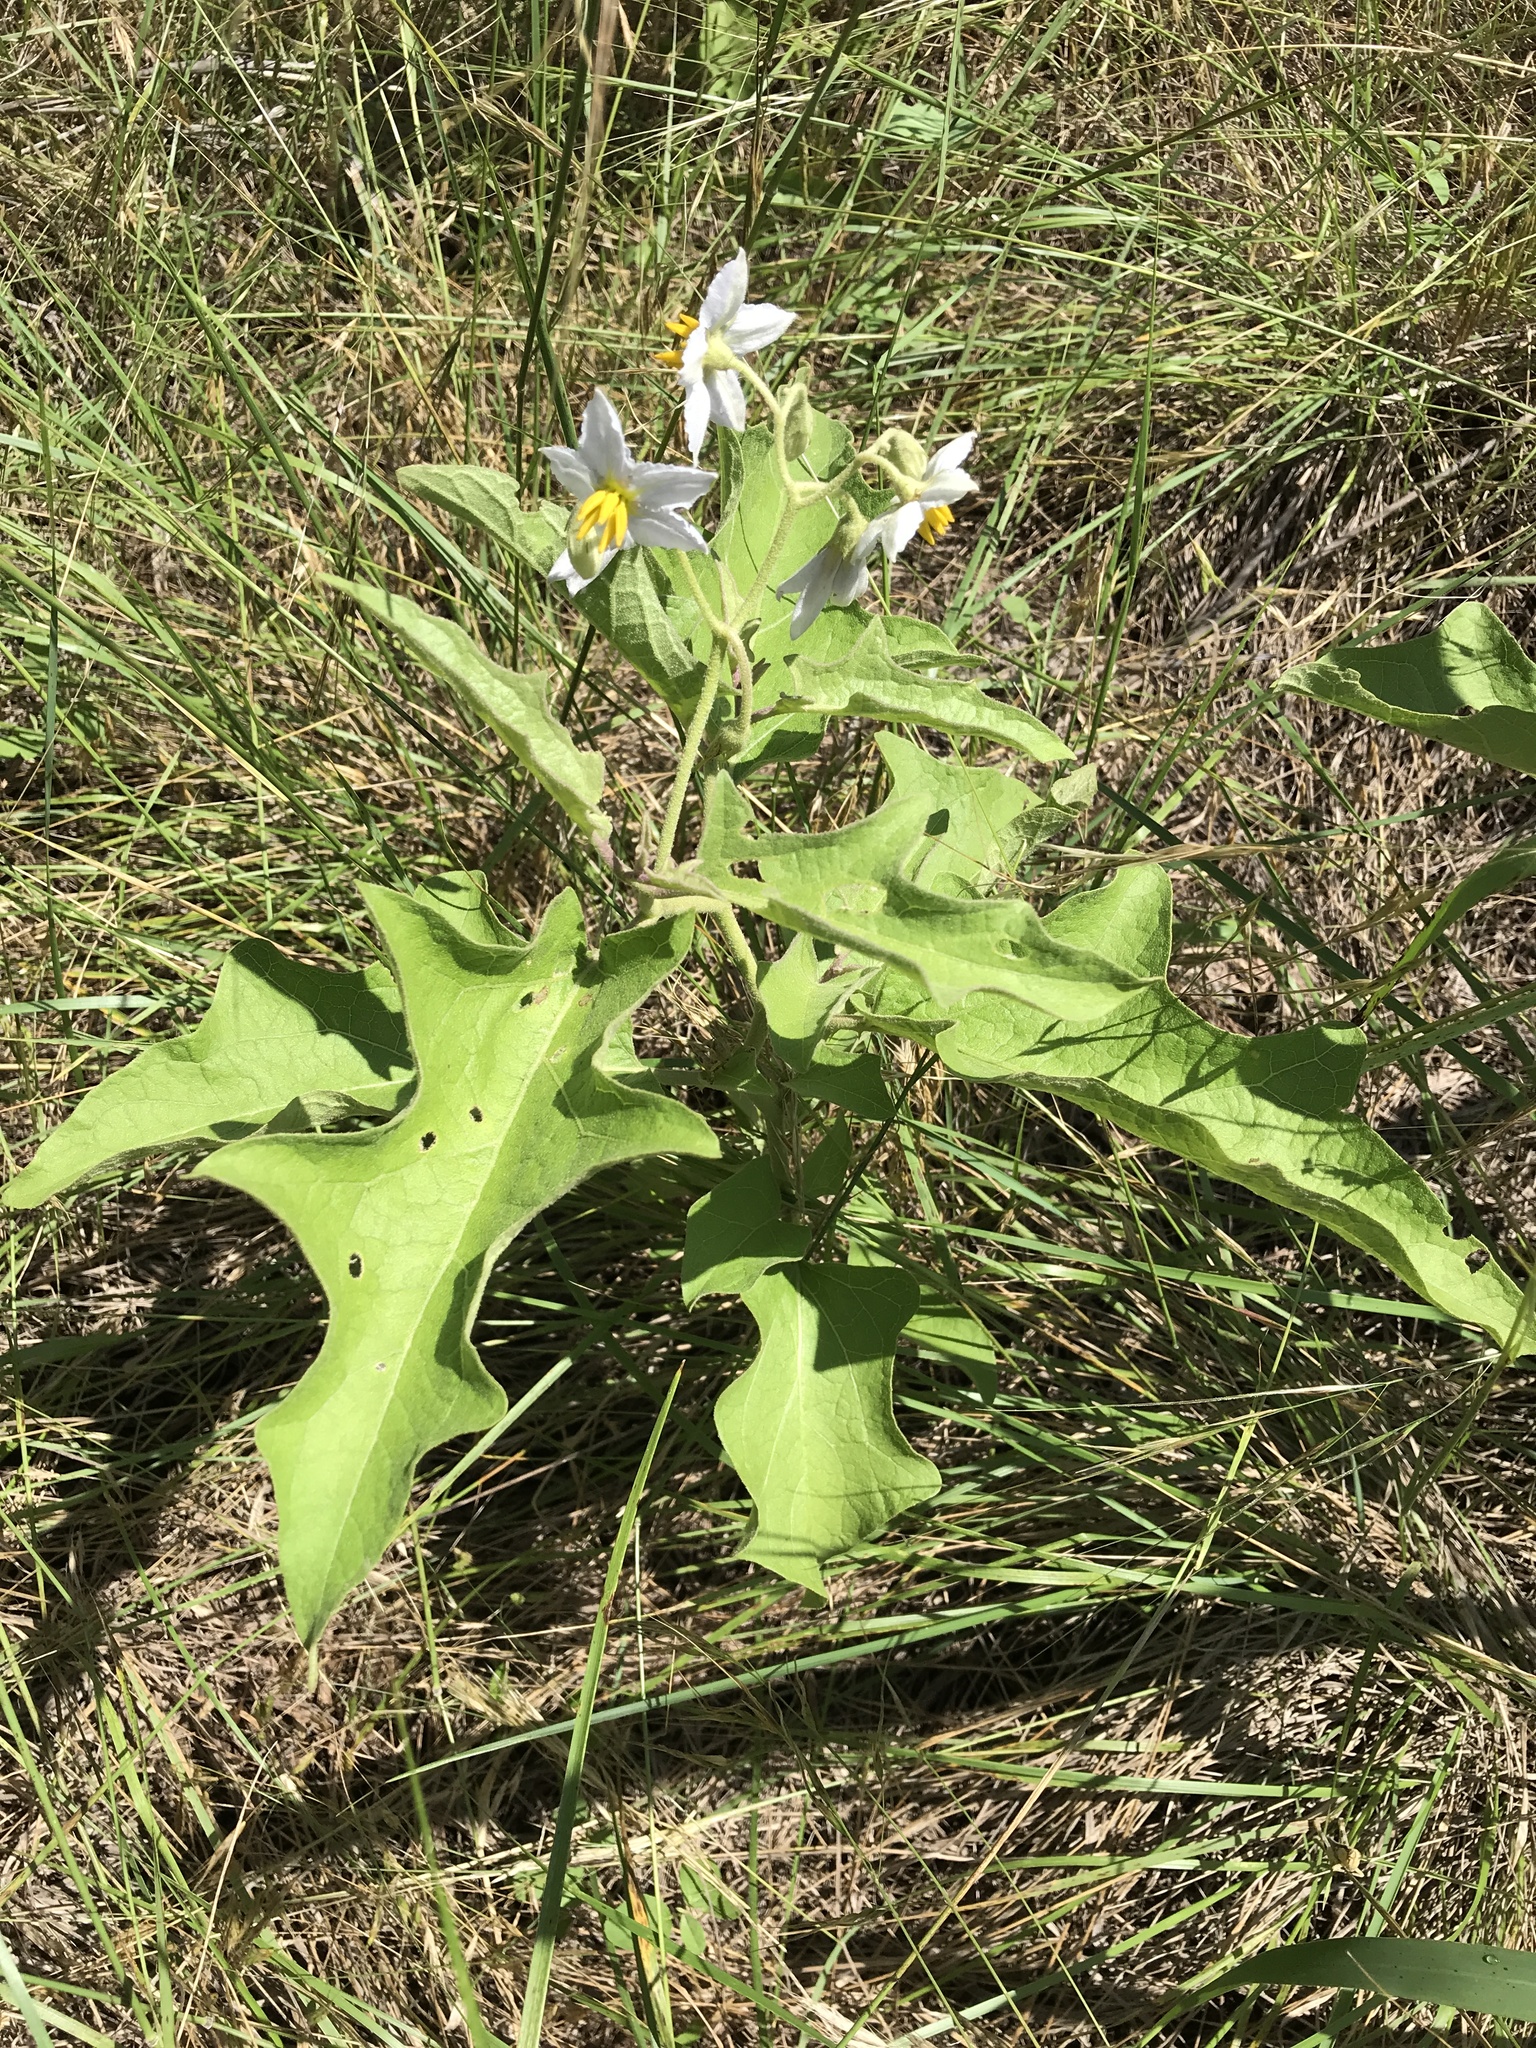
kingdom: Plantae
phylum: Tracheophyta
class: Magnoliopsida
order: Solanales
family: Solanaceae
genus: Solanum
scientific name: Solanum dimidiatum
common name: Carolina horse-nettle
